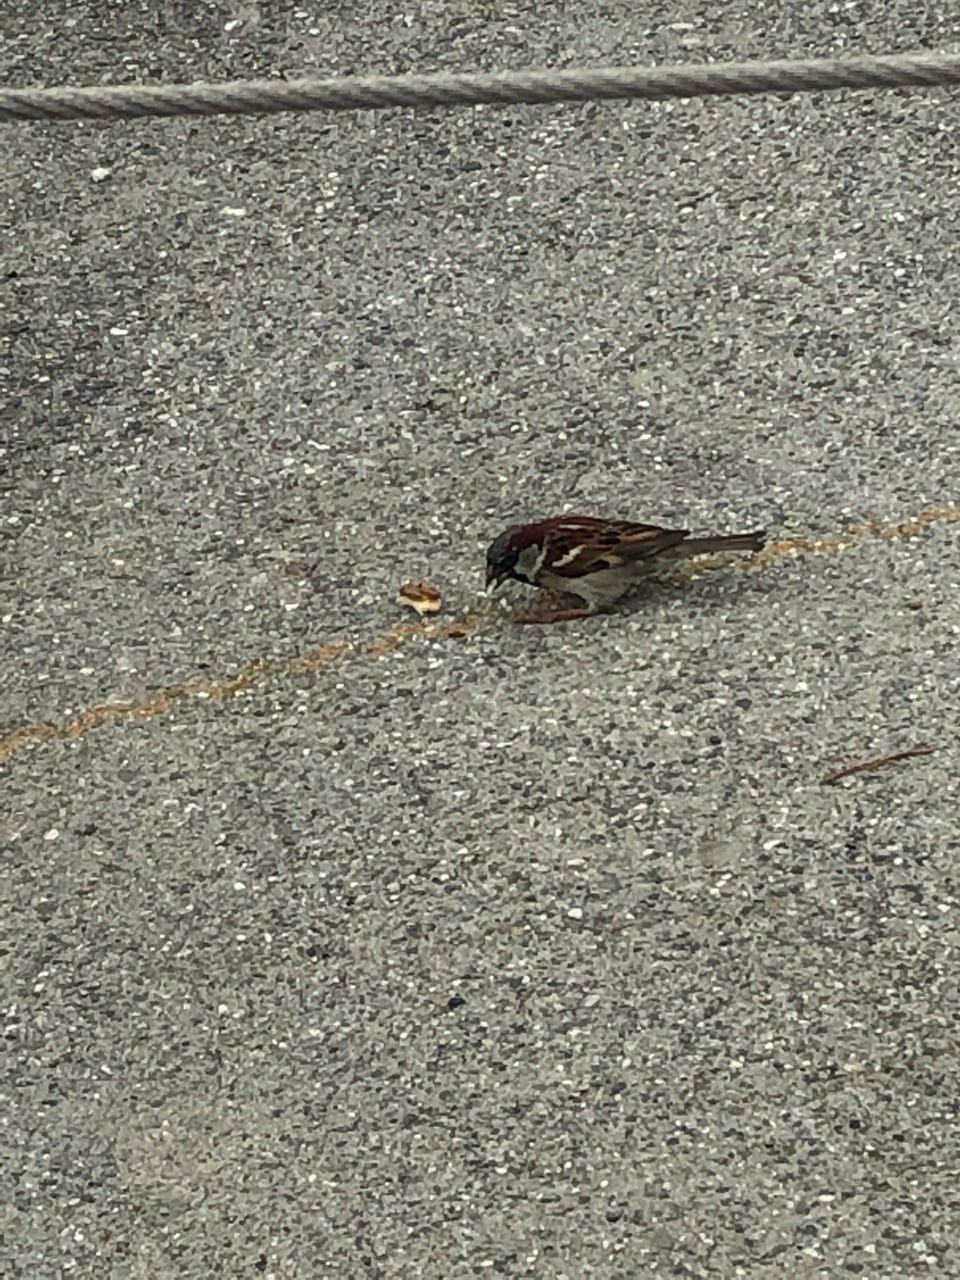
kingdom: Animalia
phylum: Chordata
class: Aves
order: Passeriformes
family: Passeridae
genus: Passer
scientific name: Passer domesticus
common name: House sparrow
